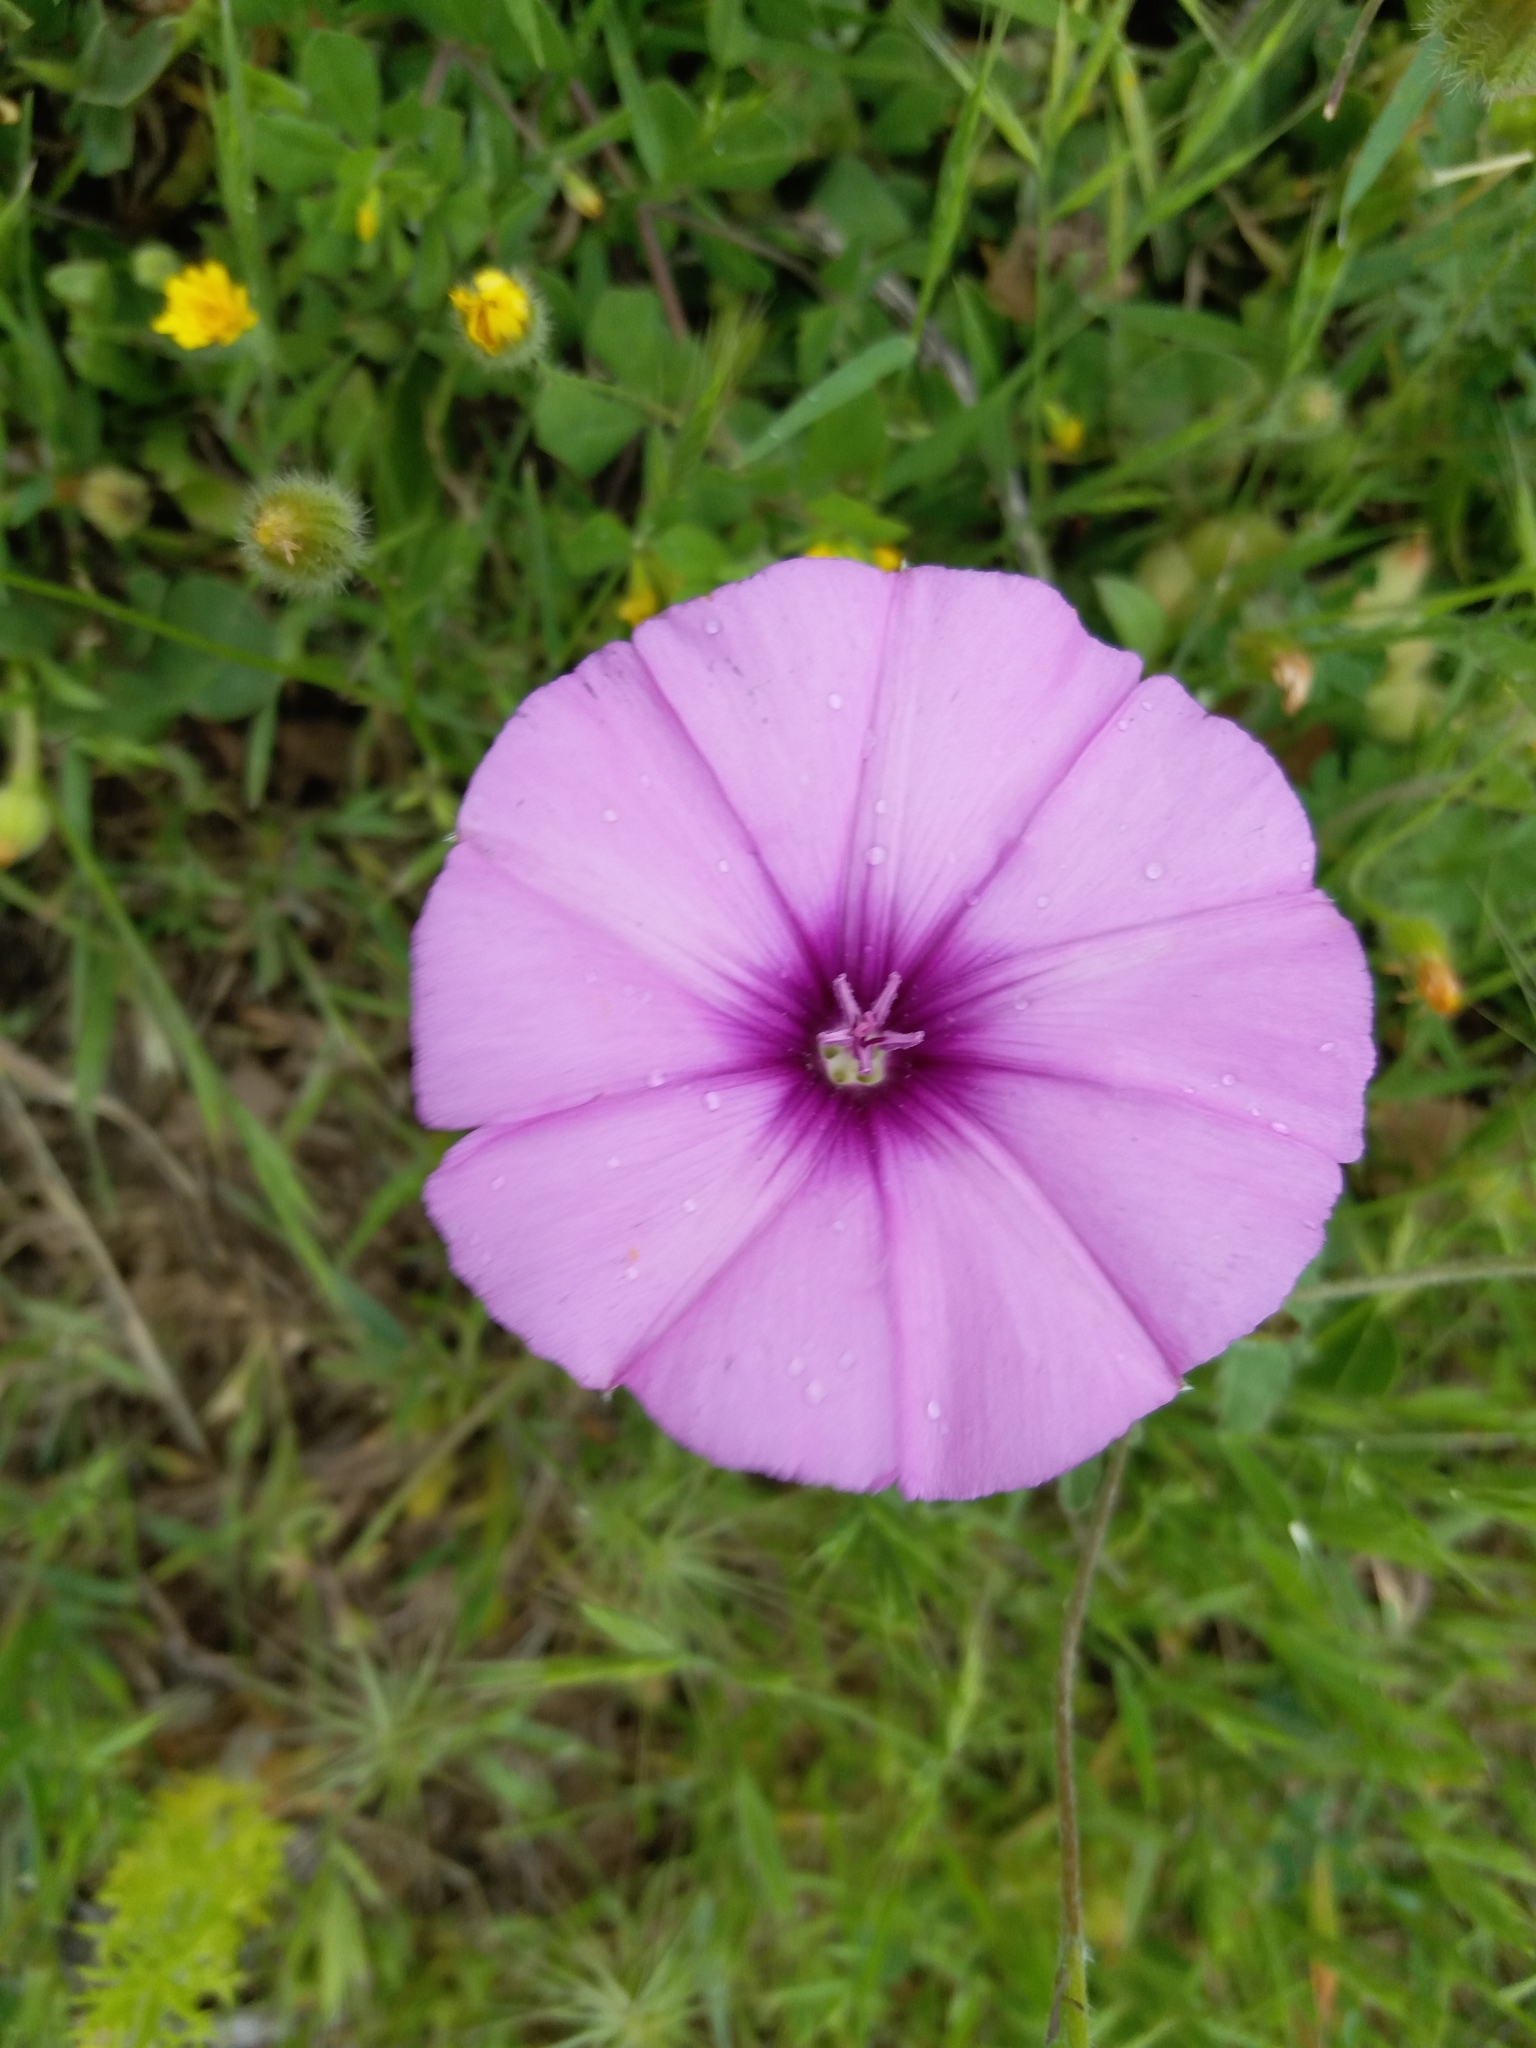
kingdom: Plantae
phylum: Tracheophyta
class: Magnoliopsida
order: Solanales
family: Convolvulaceae
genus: Convolvulus
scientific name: Convolvulus althaeoides
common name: Mallow bindweed
